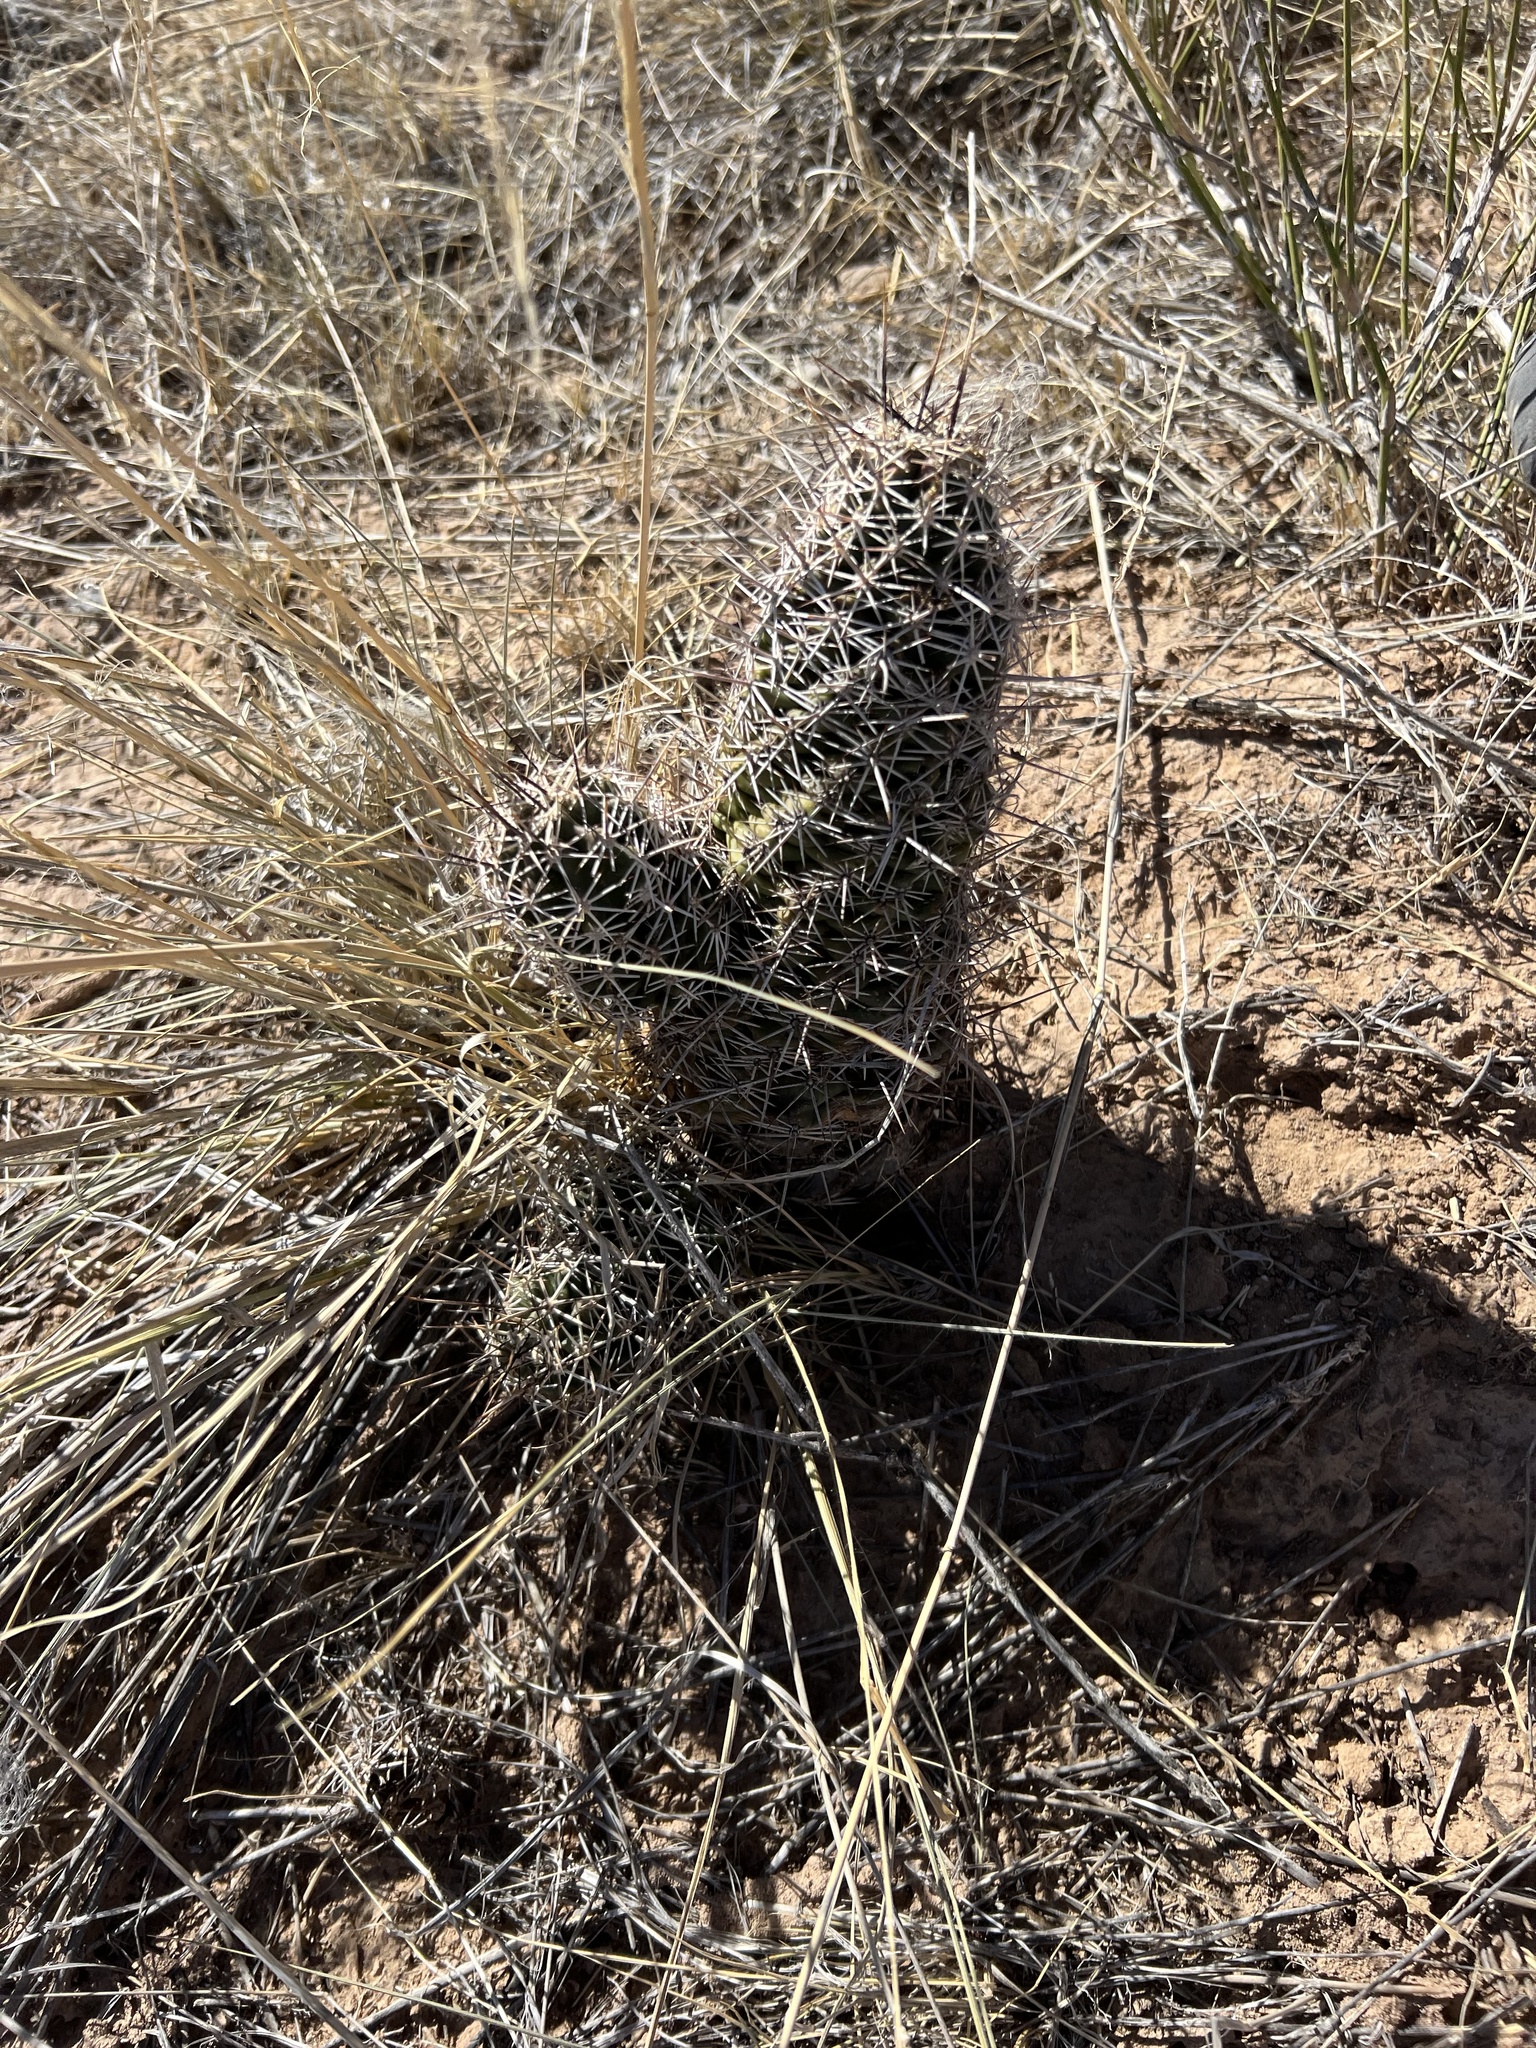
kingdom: Plantae
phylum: Tracheophyta
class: Magnoliopsida
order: Caryophyllales
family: Cactaceae
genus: Echinocereus
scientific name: Echinocereus fendleri
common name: Fendler's hedgehog cactus
